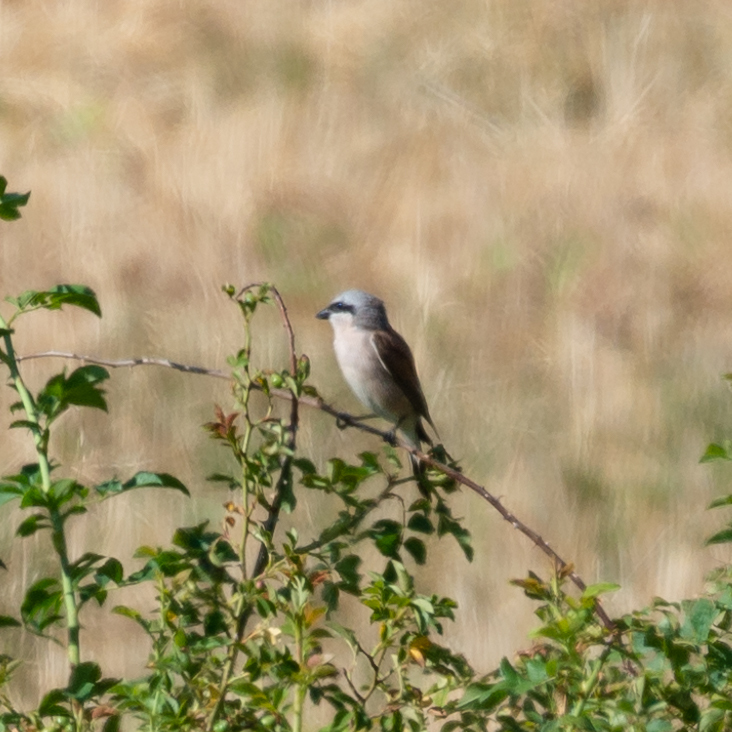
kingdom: Animalia
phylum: Chordata
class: Aves
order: Passeriformes
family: Laniidae
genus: Lanius
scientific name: Lanius collurio
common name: Red-backed shrike
